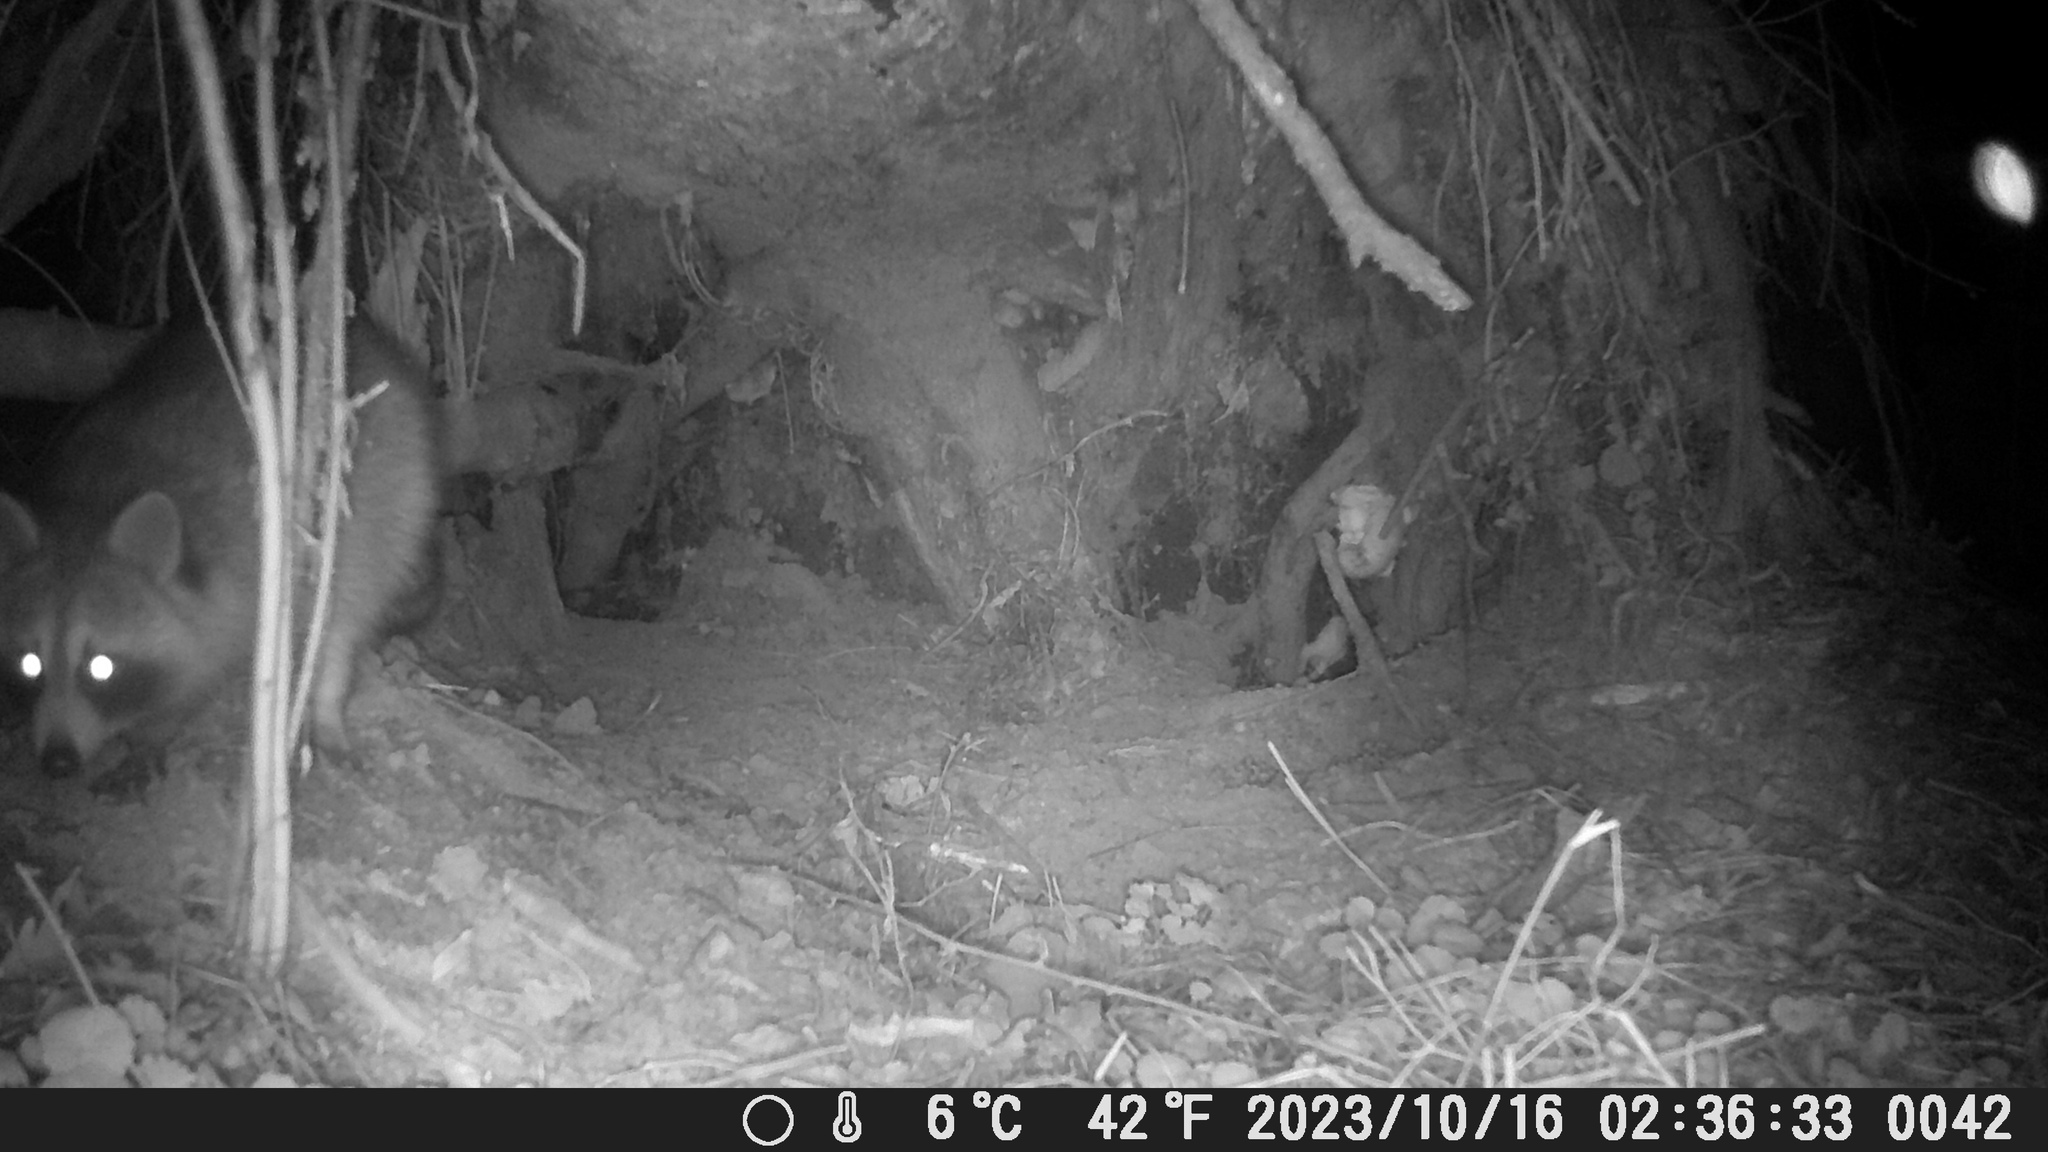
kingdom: Animalia
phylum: Chordata
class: Mammalia
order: Carnivora
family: Procyonidae
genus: Procyon
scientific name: Procyon lotor
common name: Raccoon
